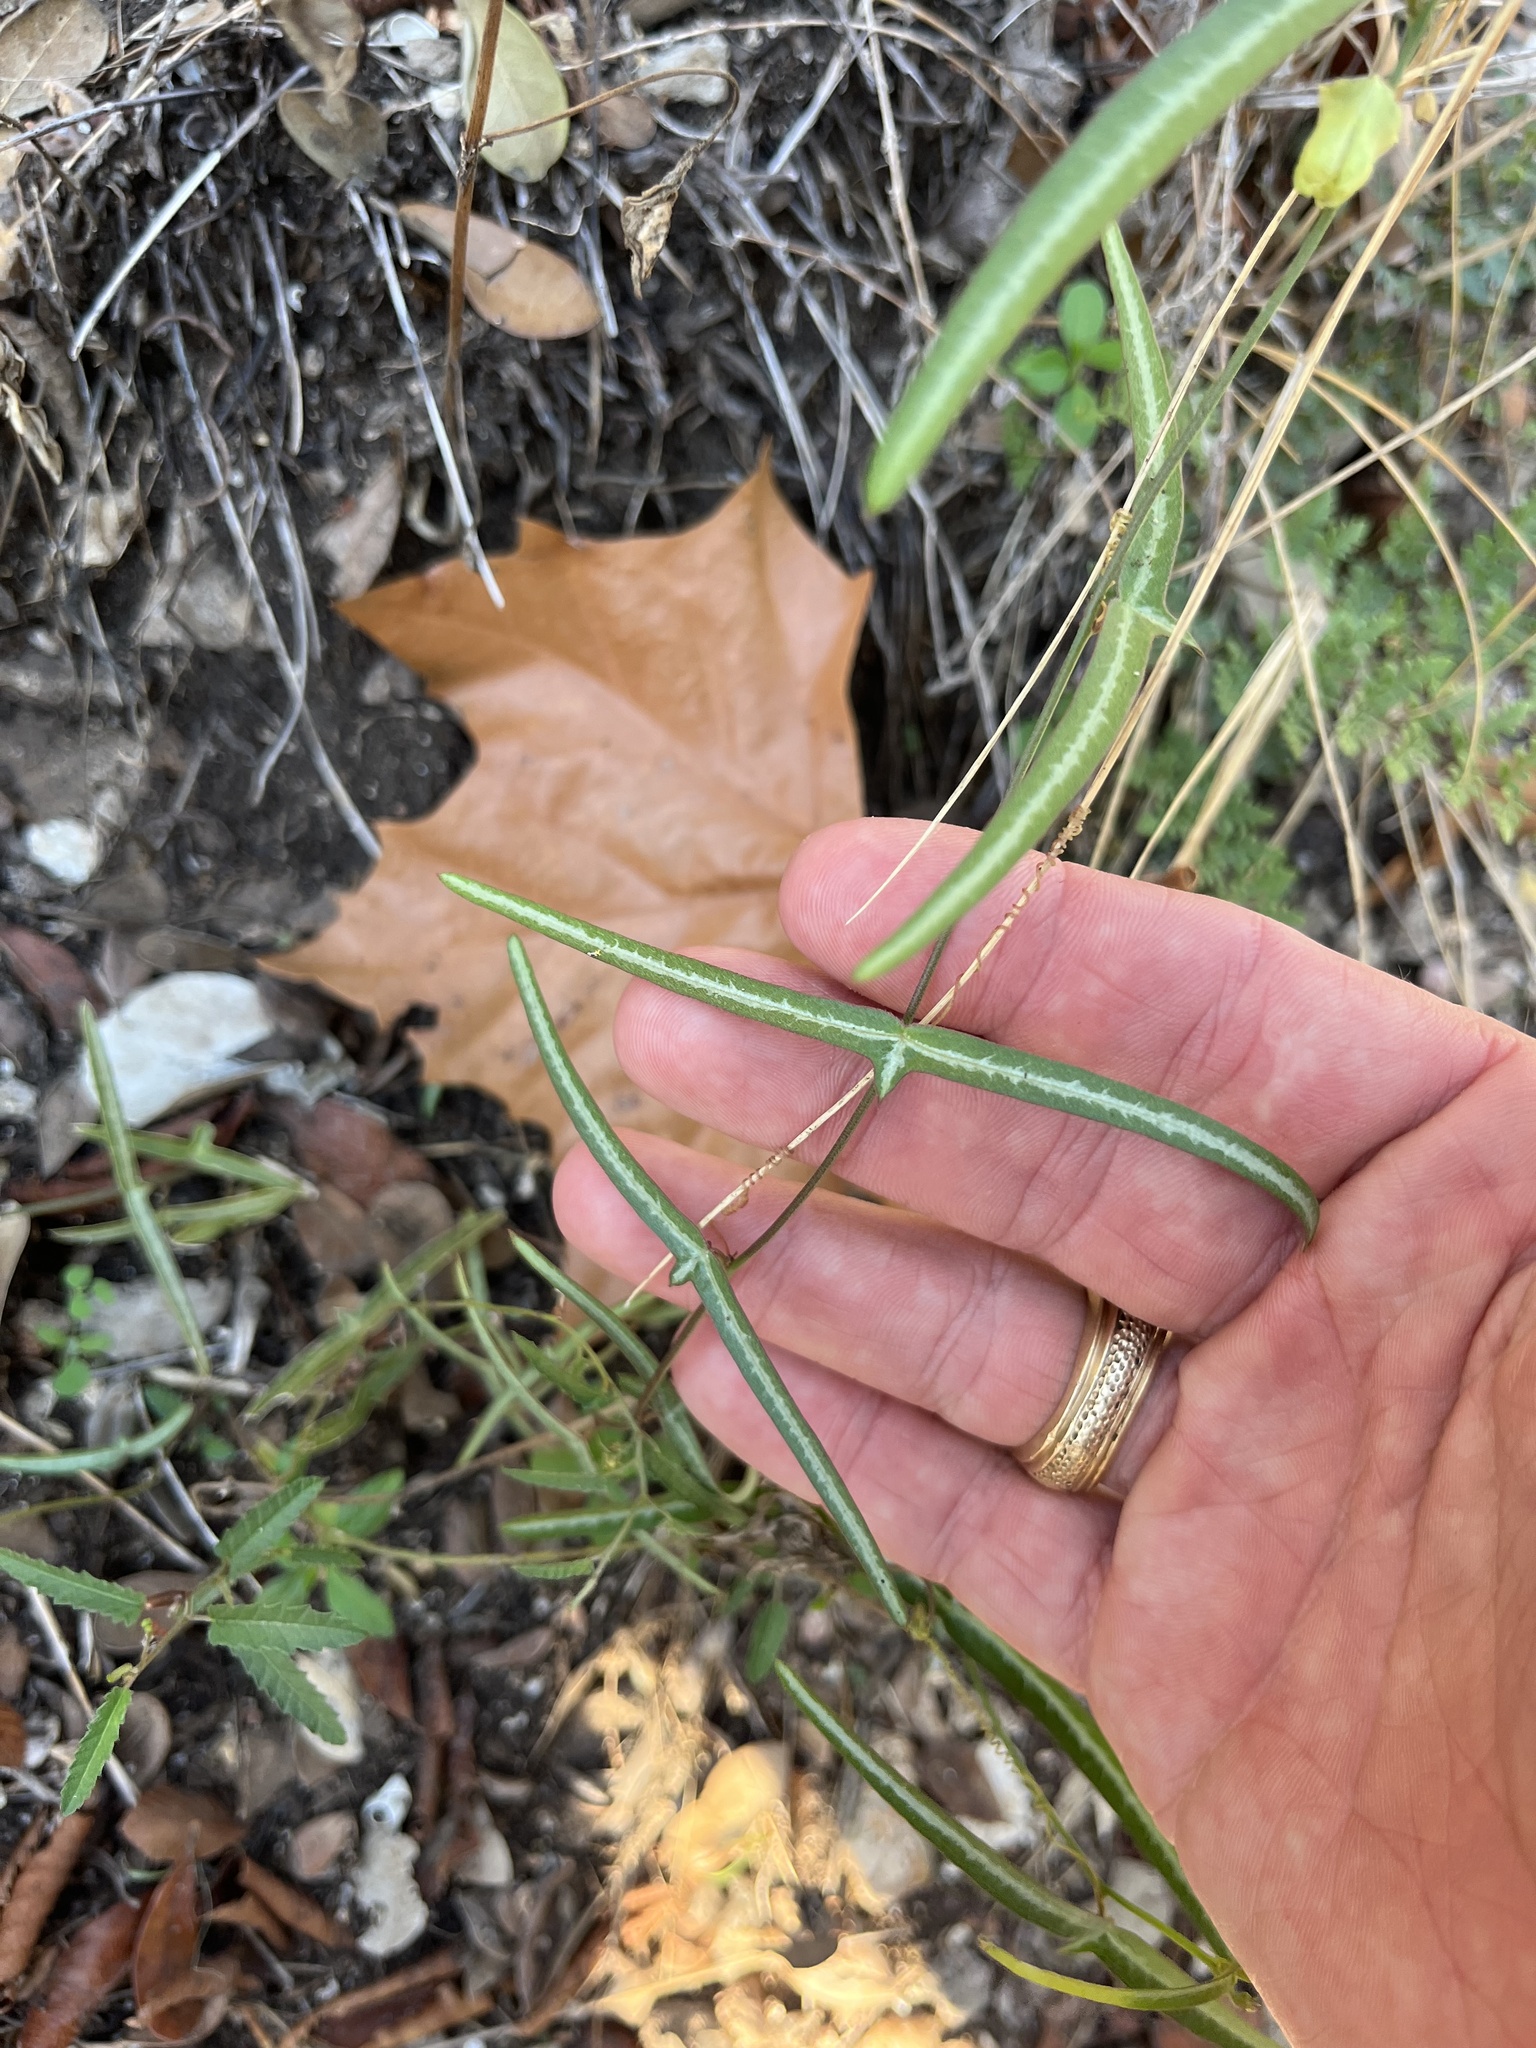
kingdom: Plantae
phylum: Tracheophyta
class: Magnoliopsida
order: Malpighiales
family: Passifloraceae
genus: Passiflora
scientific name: Passiflora tenuiloba
